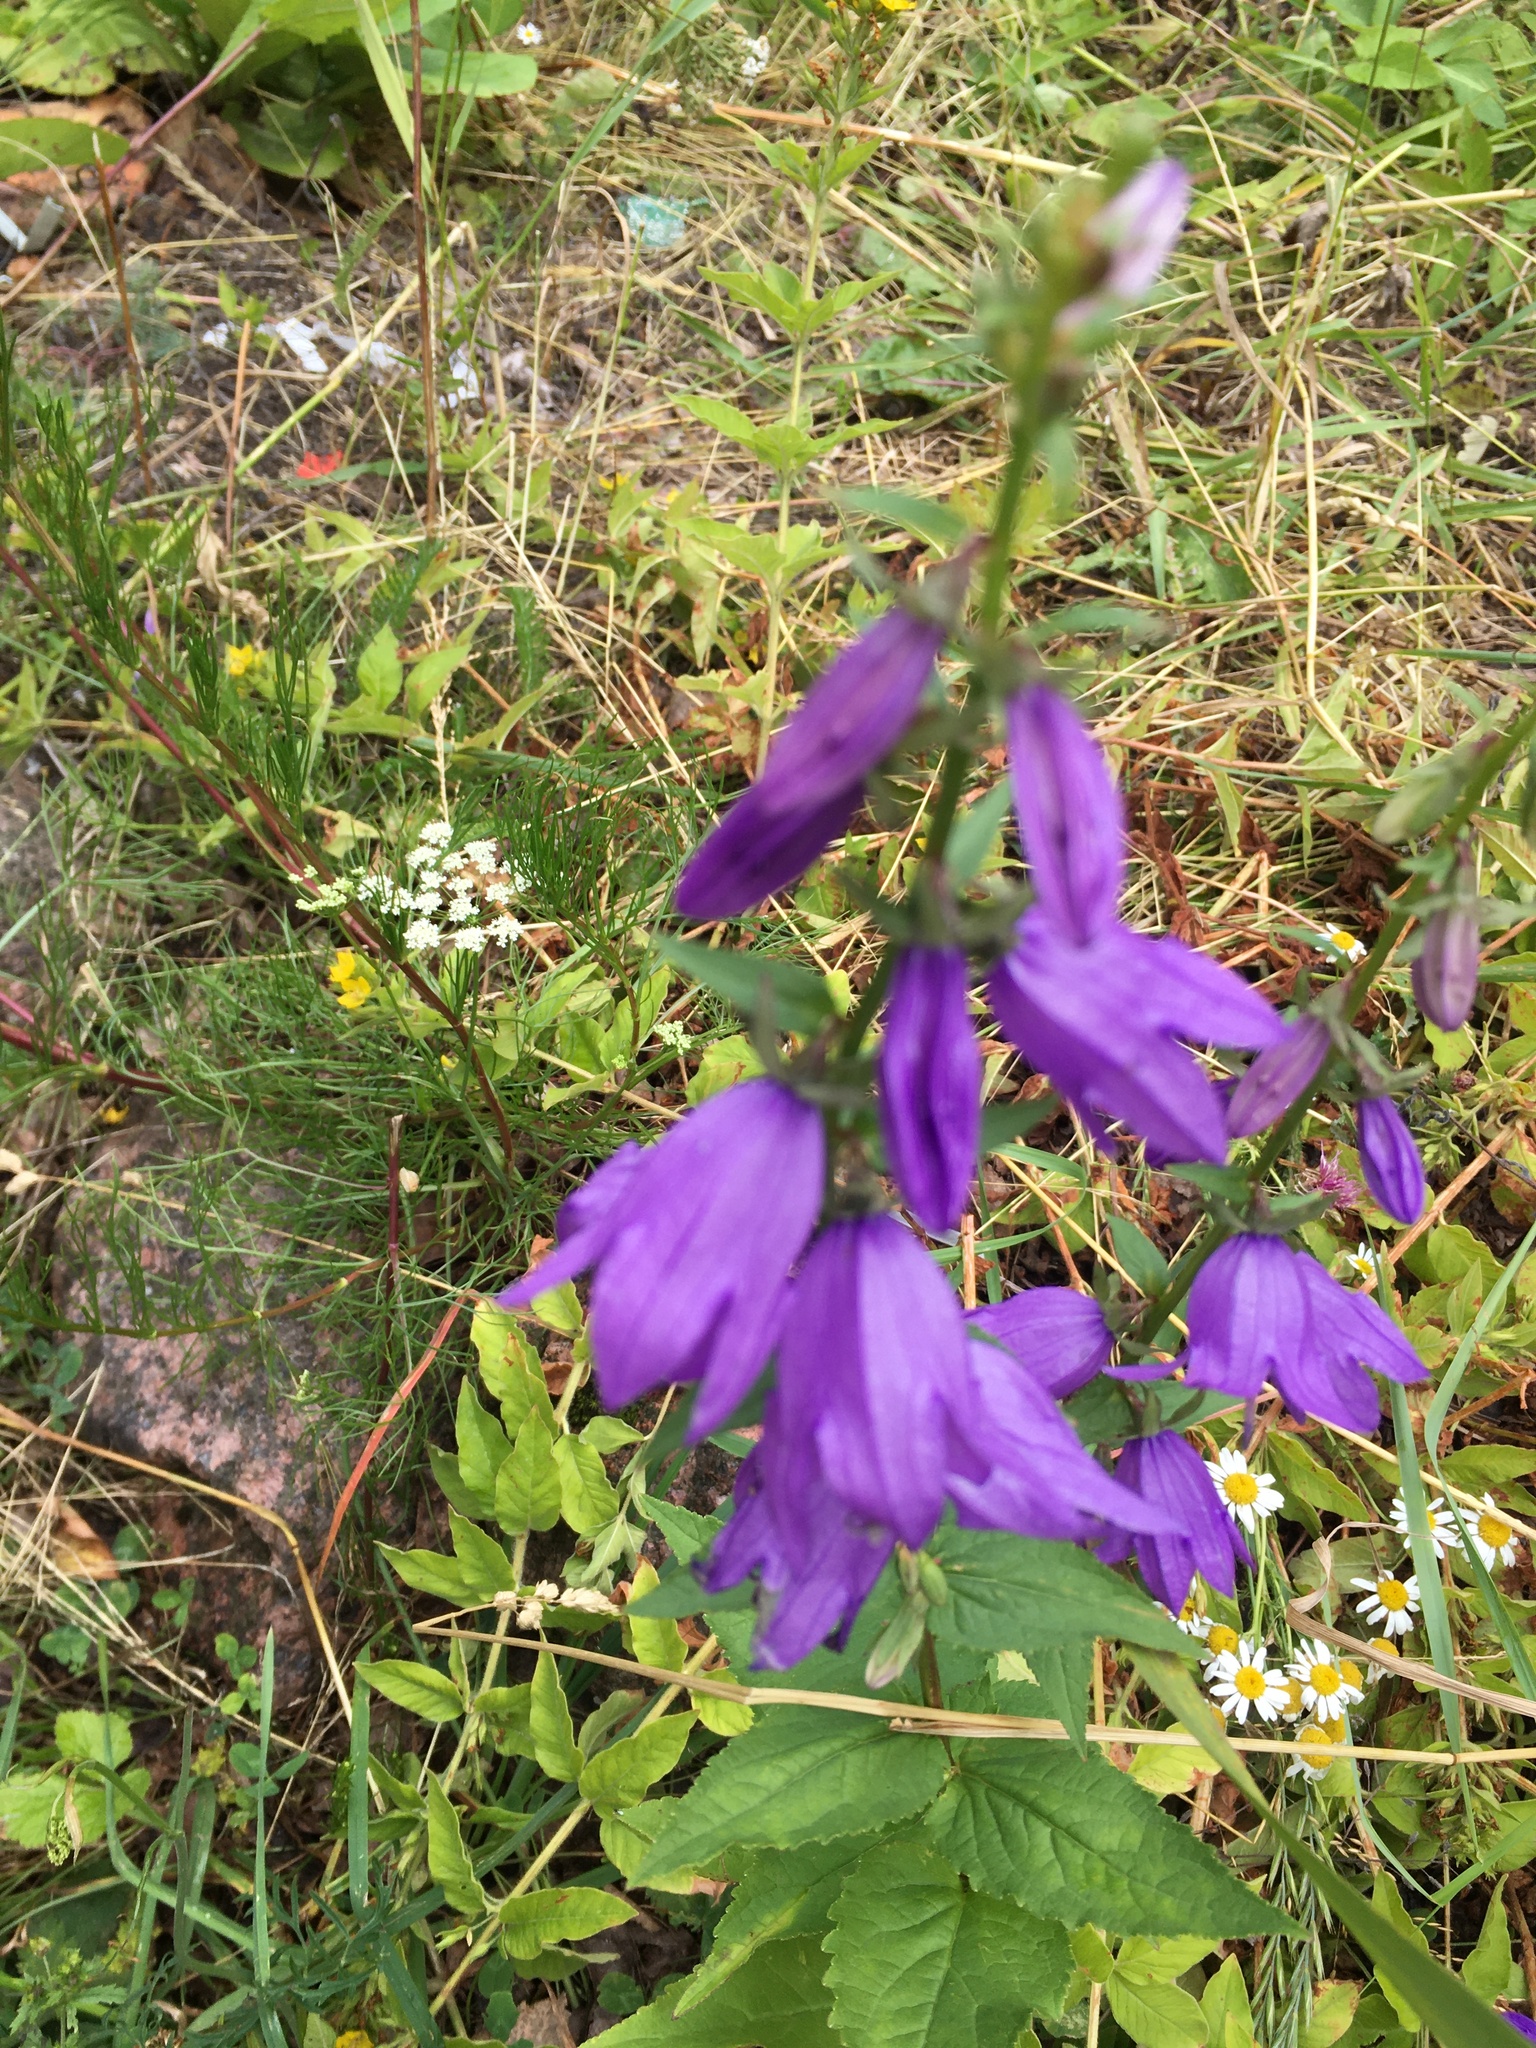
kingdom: Plantae
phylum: Tracheophyta
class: Magnoliopsida
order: Asterales
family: Campanulaceae
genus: Campanula
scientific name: Campanula rapunculoides
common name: Creeping bellflower
